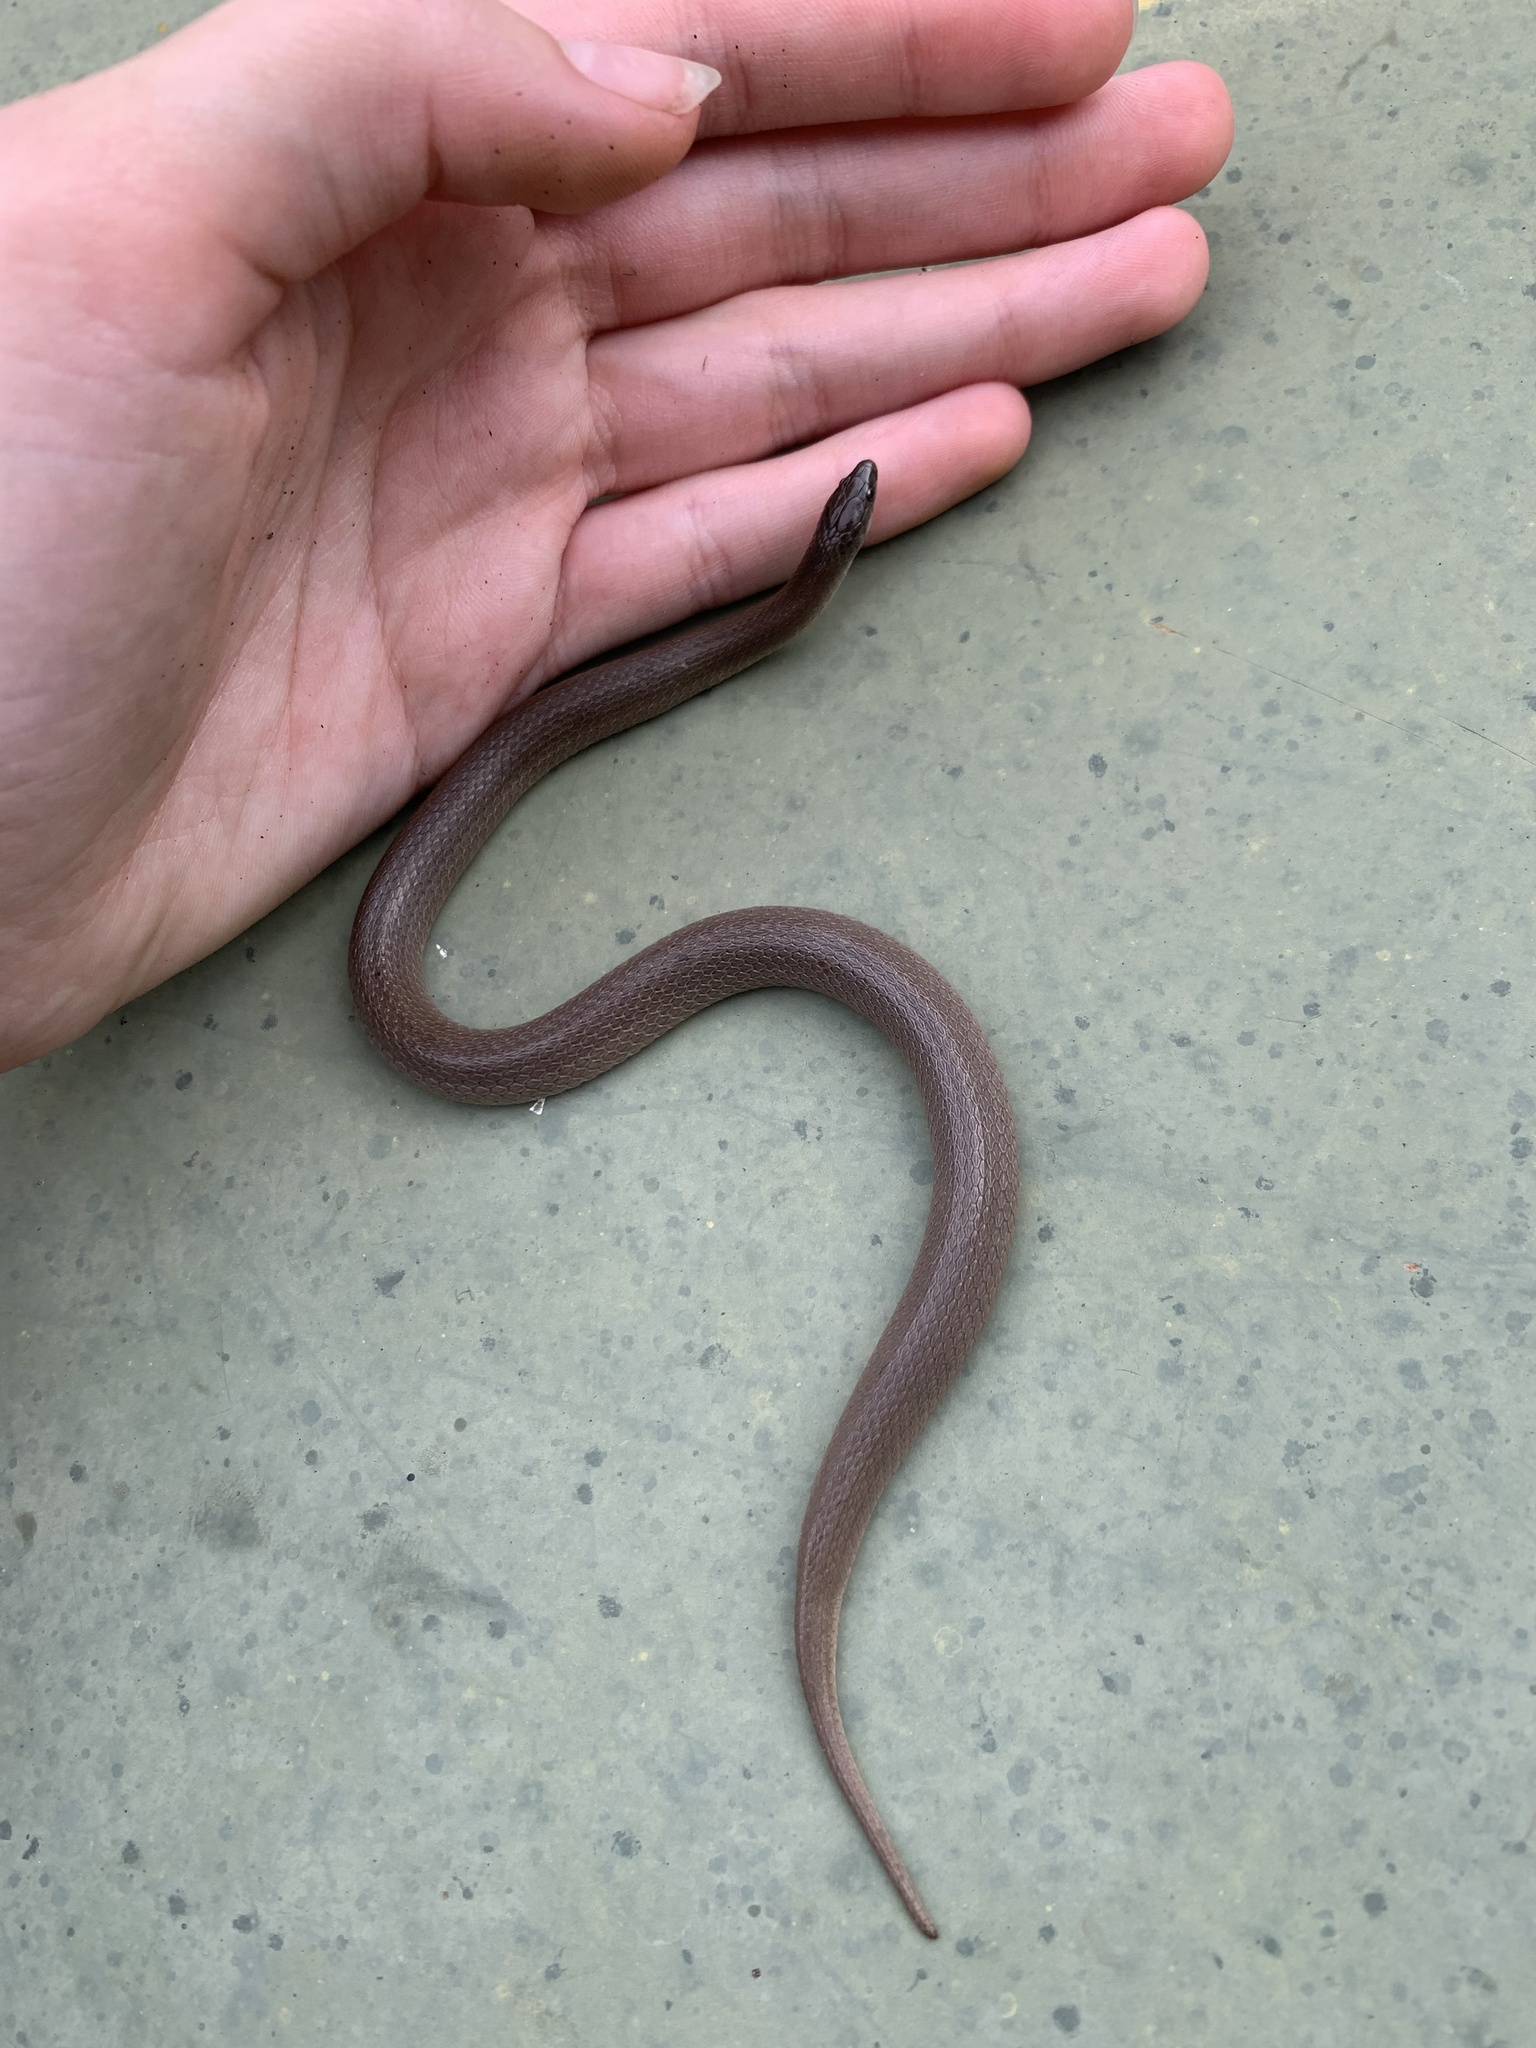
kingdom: Animalia
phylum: Chordata
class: Squamata
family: Colubridae
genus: Haldea
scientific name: Haldea striatula
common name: Rough earth snake
